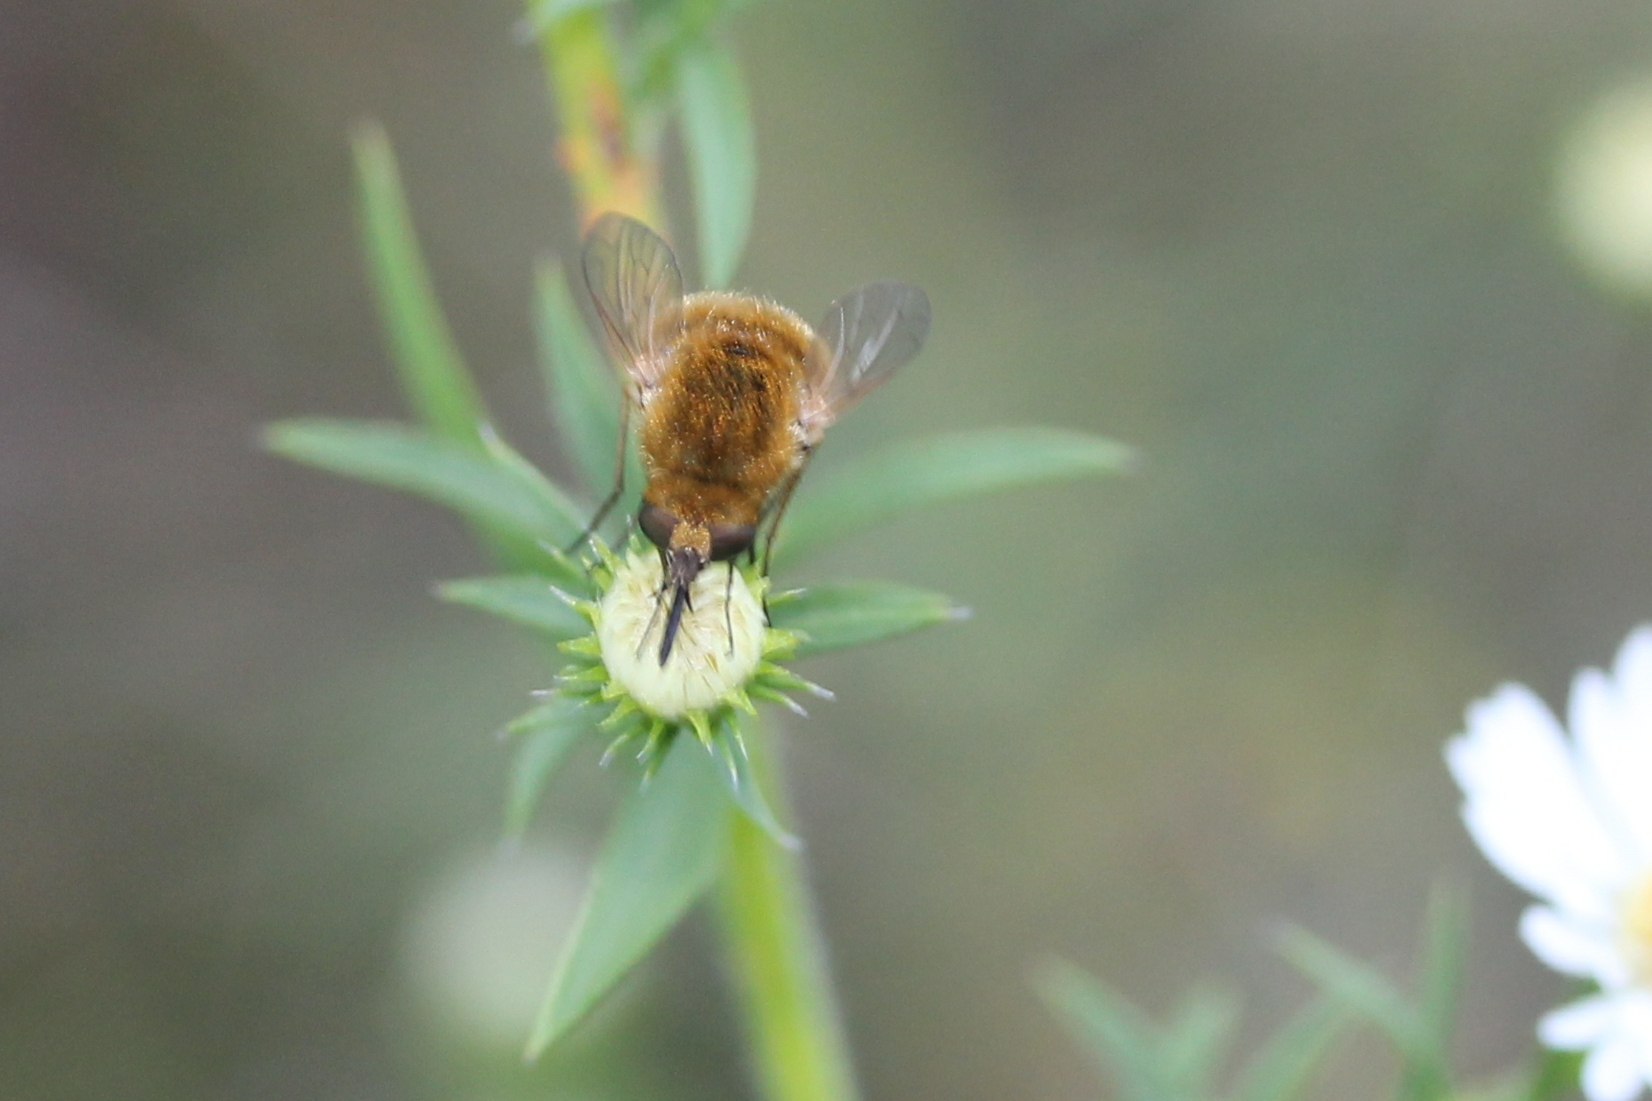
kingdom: Animalia
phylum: Arthropoda
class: Insecta
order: Diptera
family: Bombyliidae
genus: Sparnopolius
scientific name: Sparnopolius confusus
